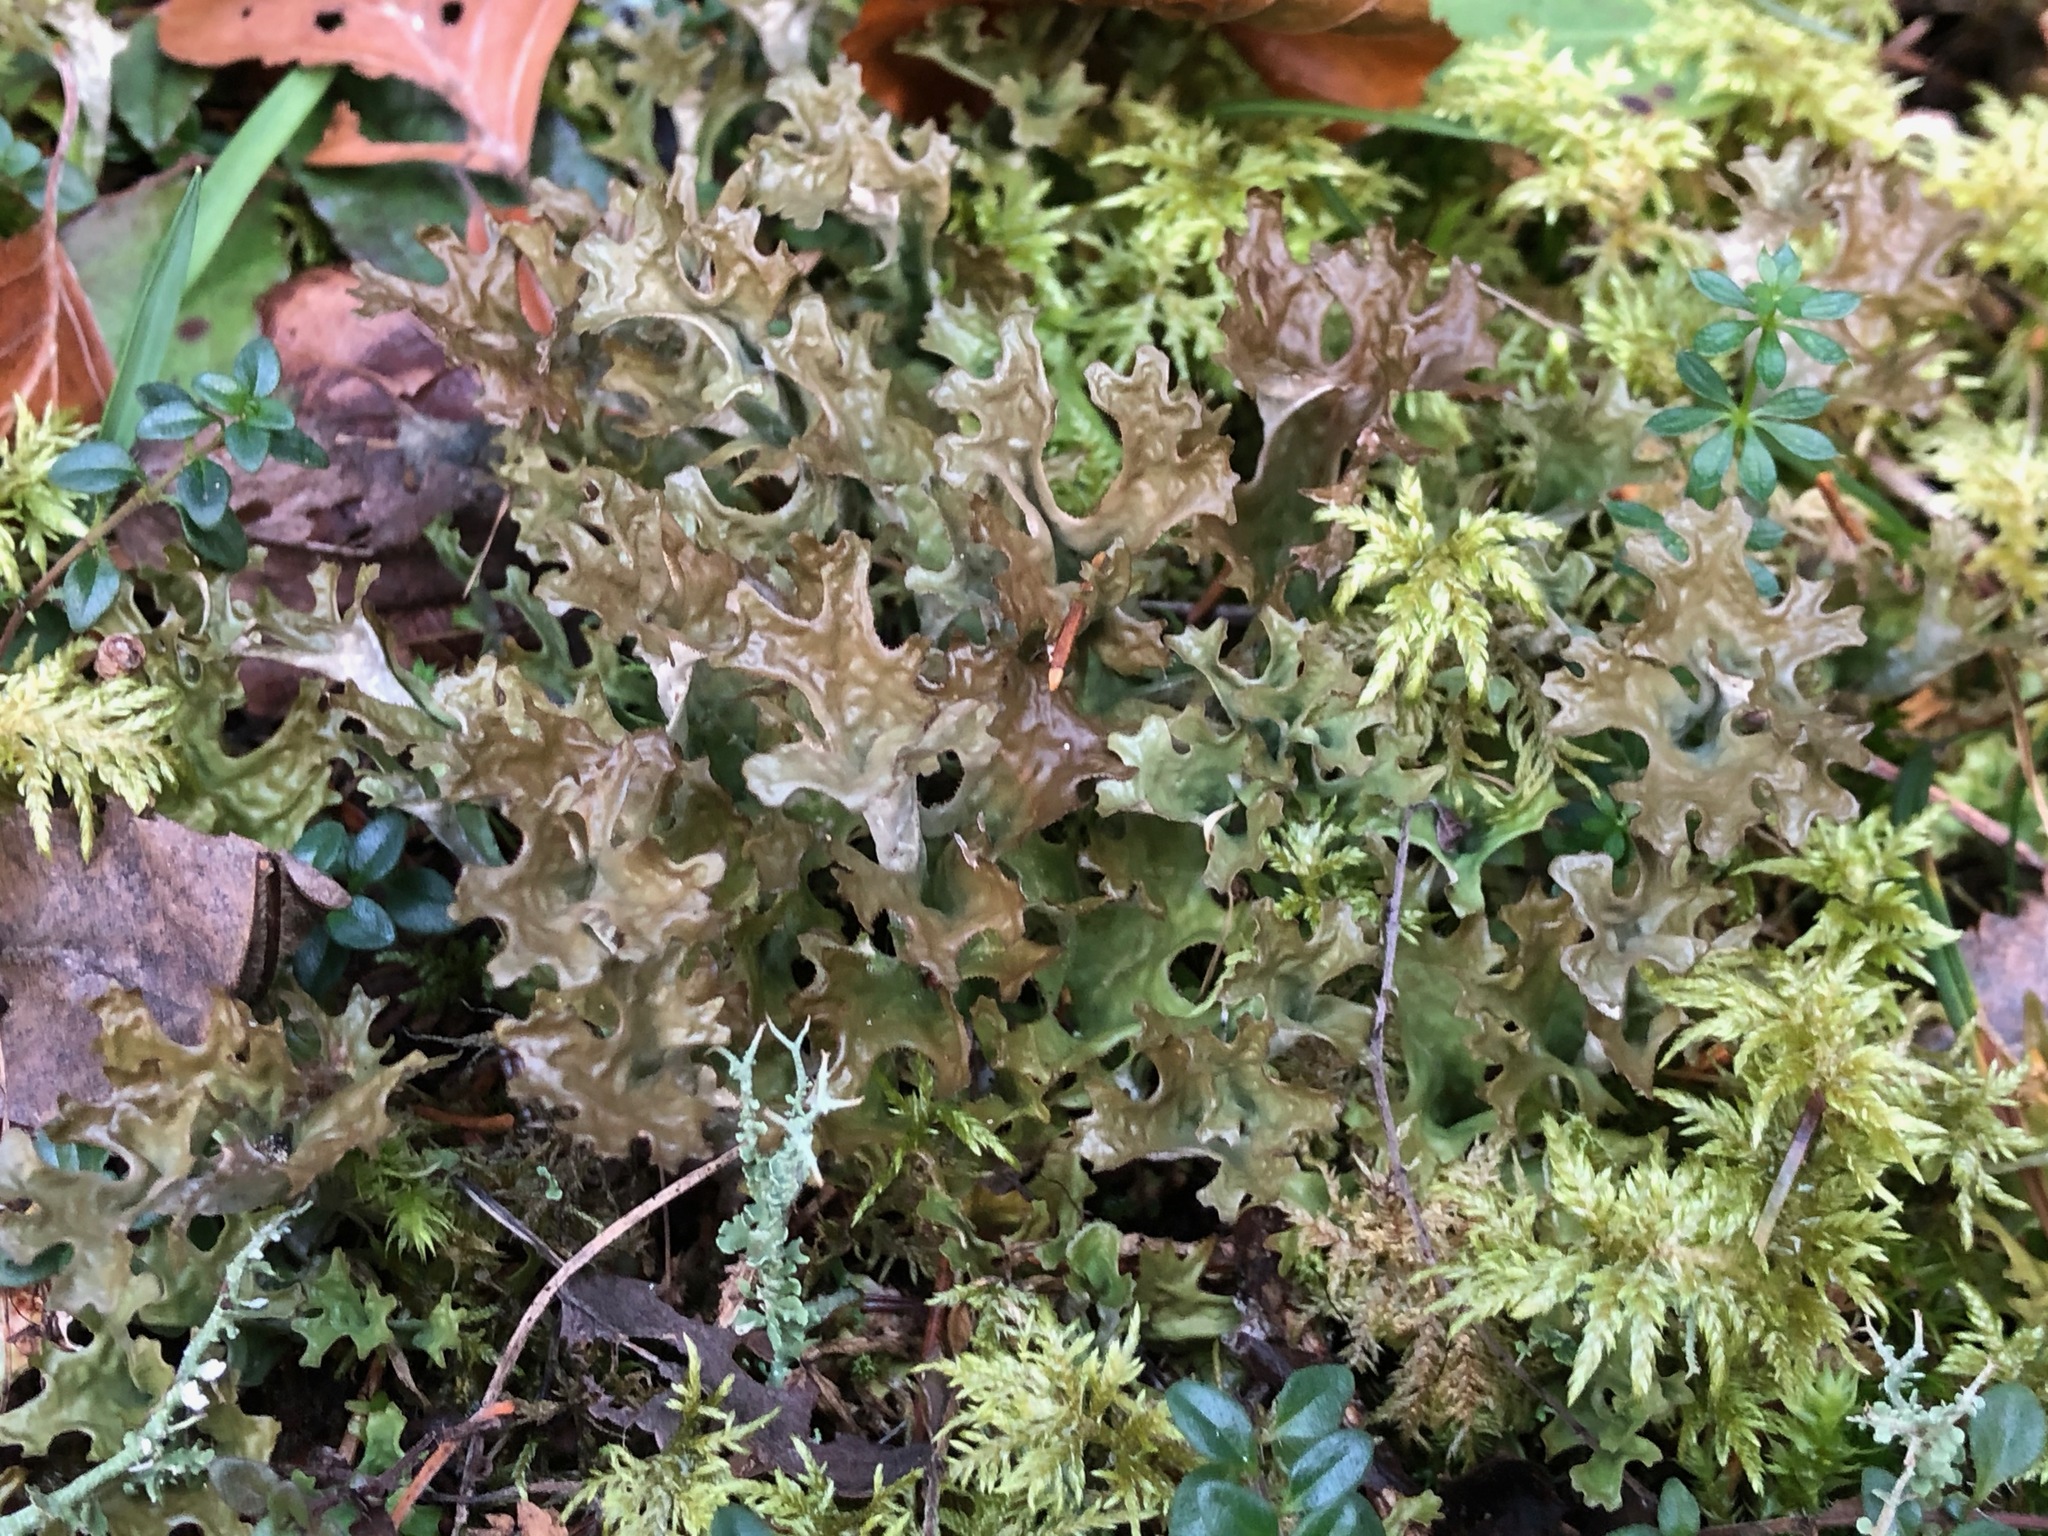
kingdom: Fungi
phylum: Ascomycota
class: Lecanoromycetes
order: Lecanorales
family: Parmeliaceae
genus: Cetraria
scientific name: Cetraria islandica
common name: Iceland lichen
